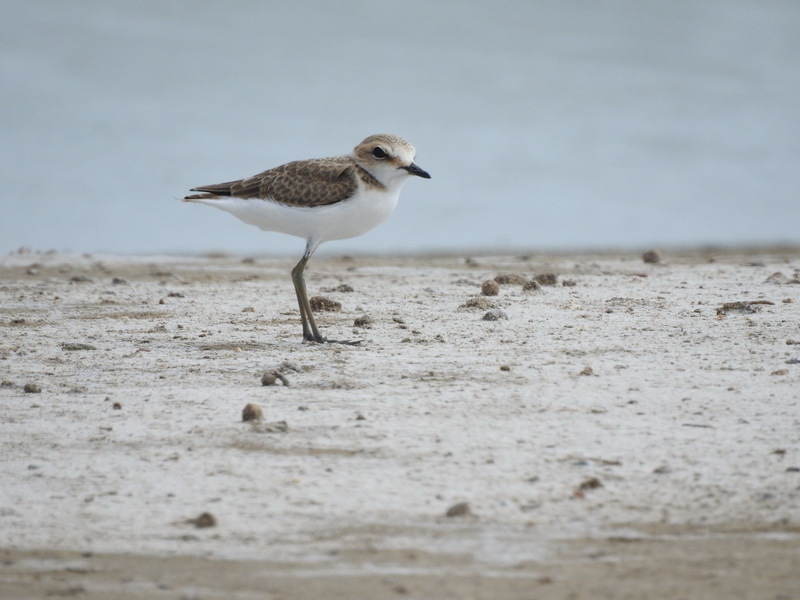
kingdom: Animalia
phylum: Chordata
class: Aves
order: Charadriiformes
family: Charadriidae
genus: Charadrius
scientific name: Charadrius alexandrinus
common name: Kentish plover
